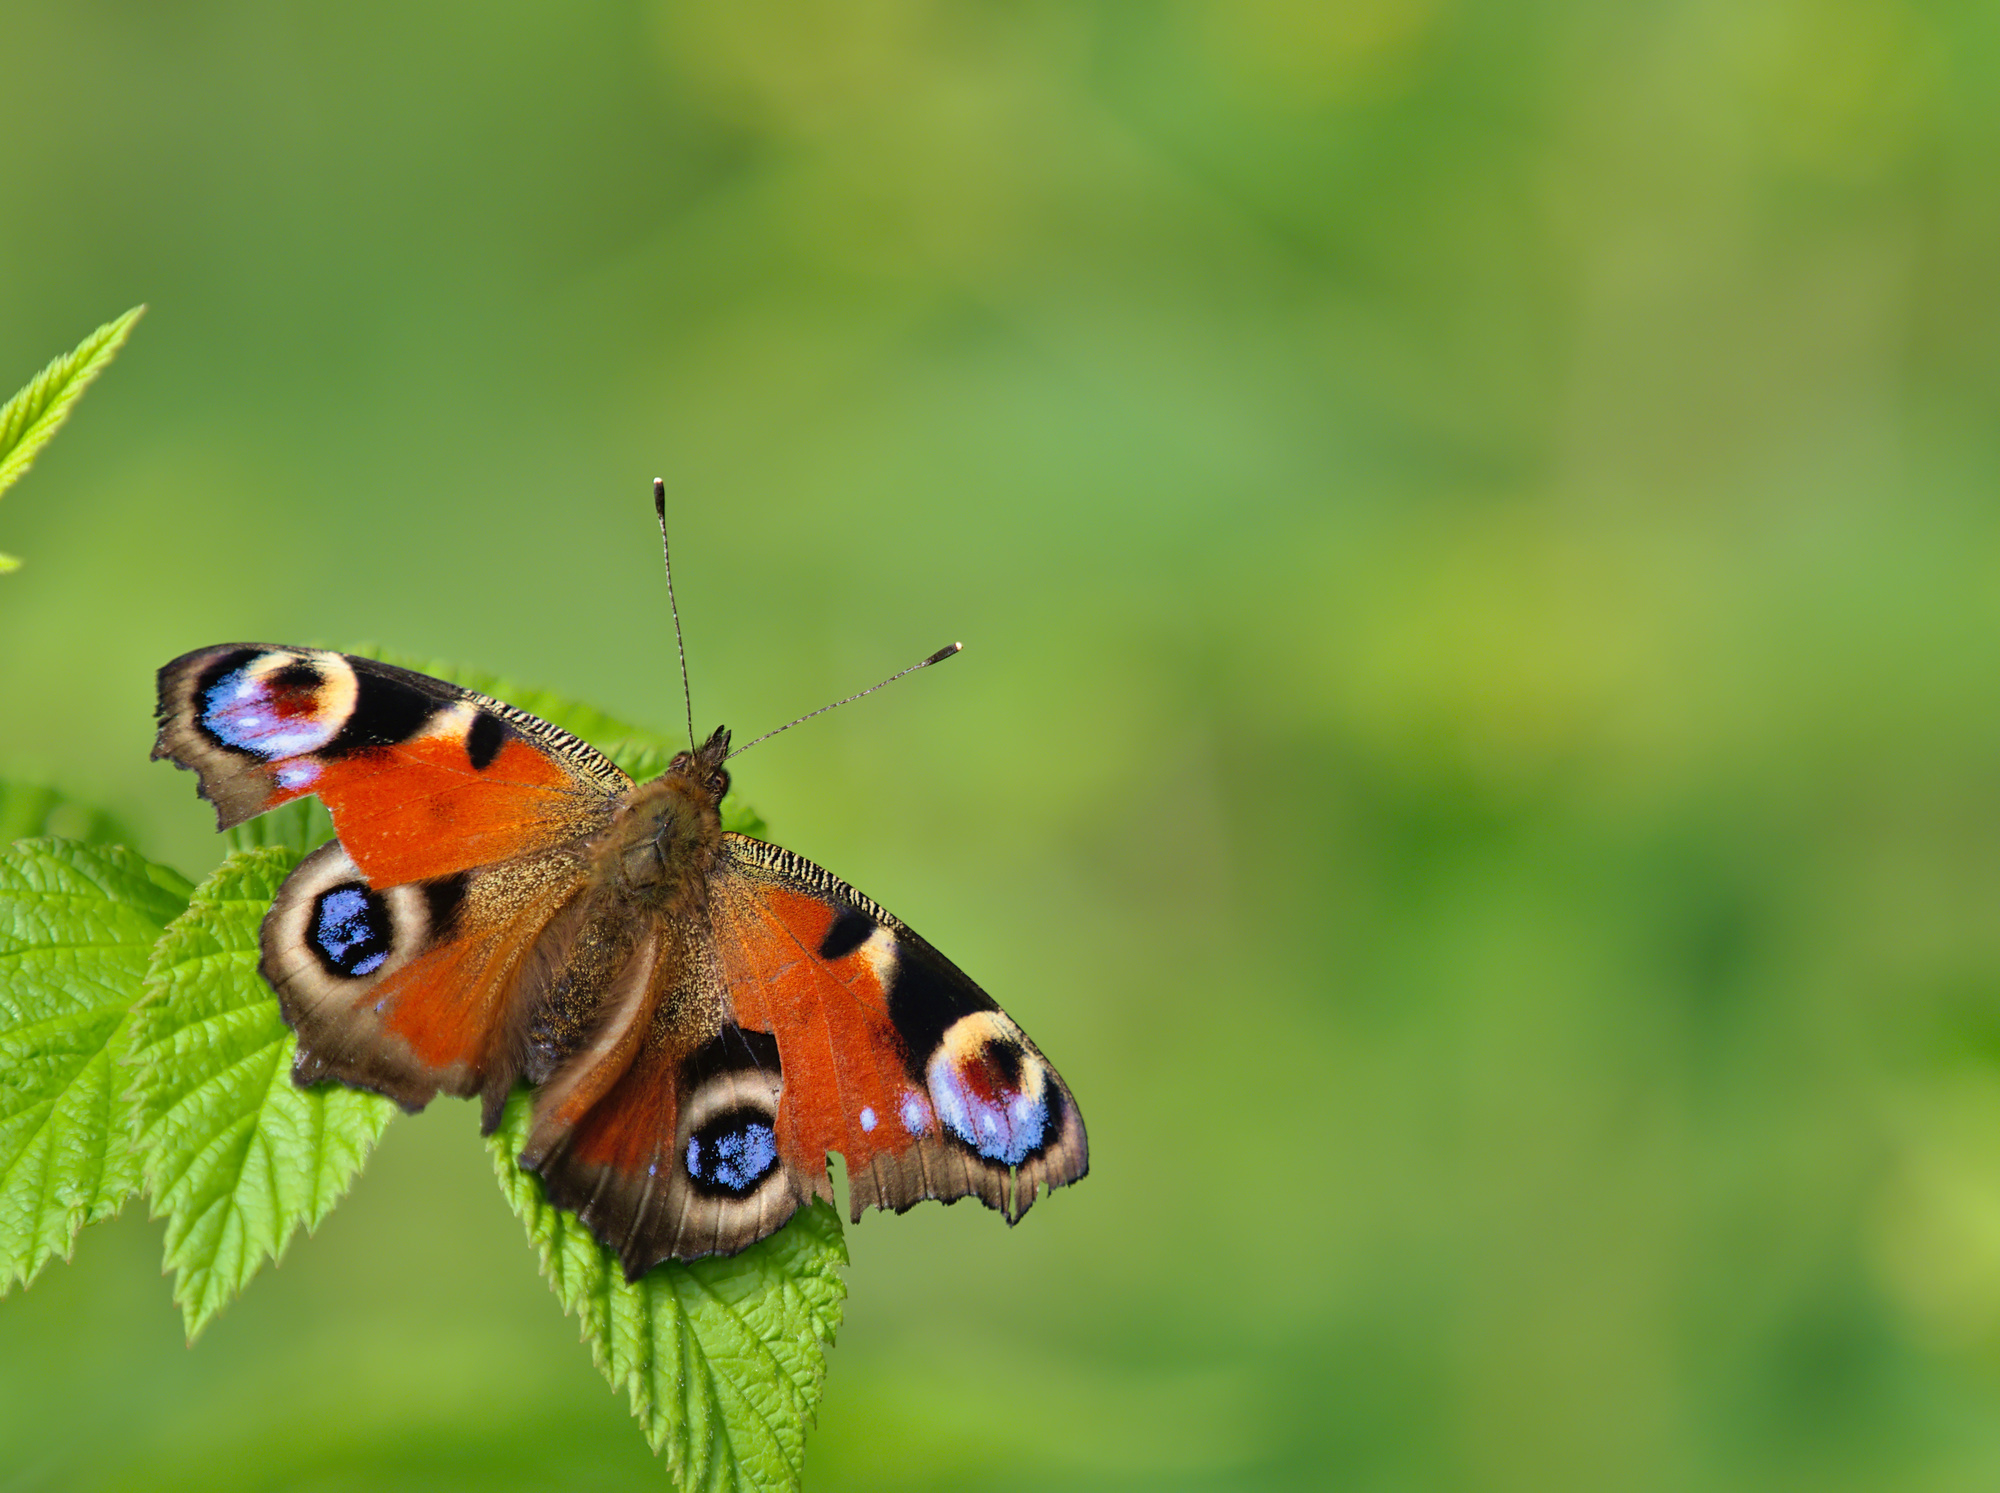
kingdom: Animalia
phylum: Arthropoda
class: Insecta
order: Lepidoptera
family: Nymphalidae
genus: Aglais
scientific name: Aglais io
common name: Peacock
